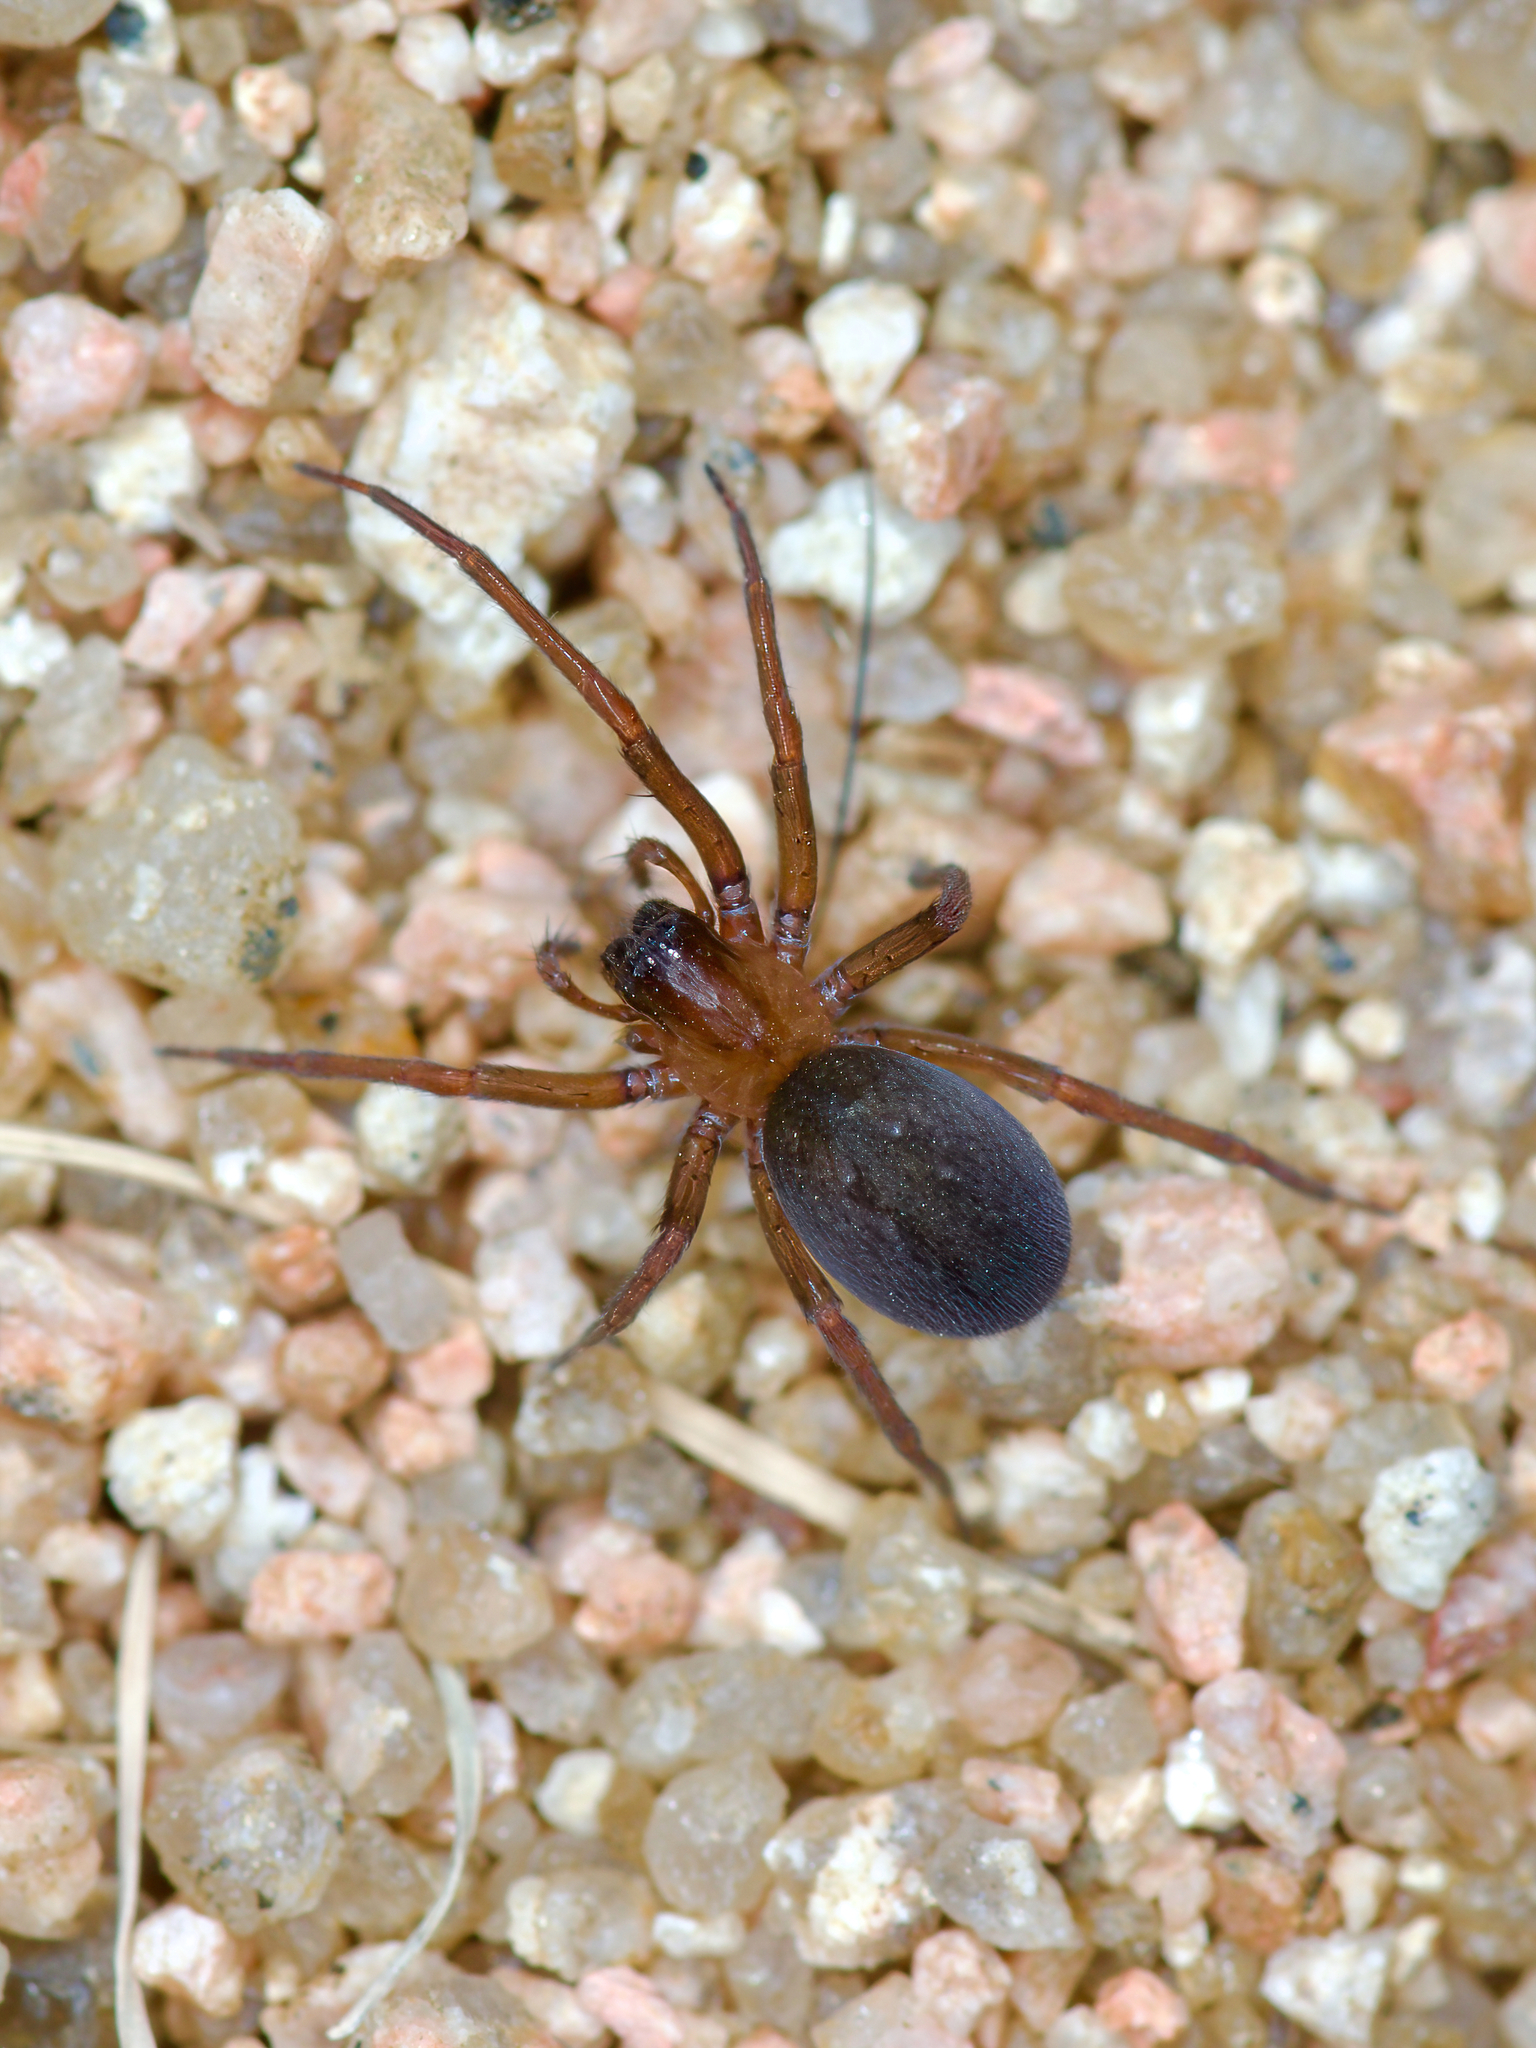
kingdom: Animalia
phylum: Arthropoda
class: Arachnida
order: Araneae
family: Desidae
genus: Metaltella
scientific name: Metaltella simoni
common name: Cribellate spider
